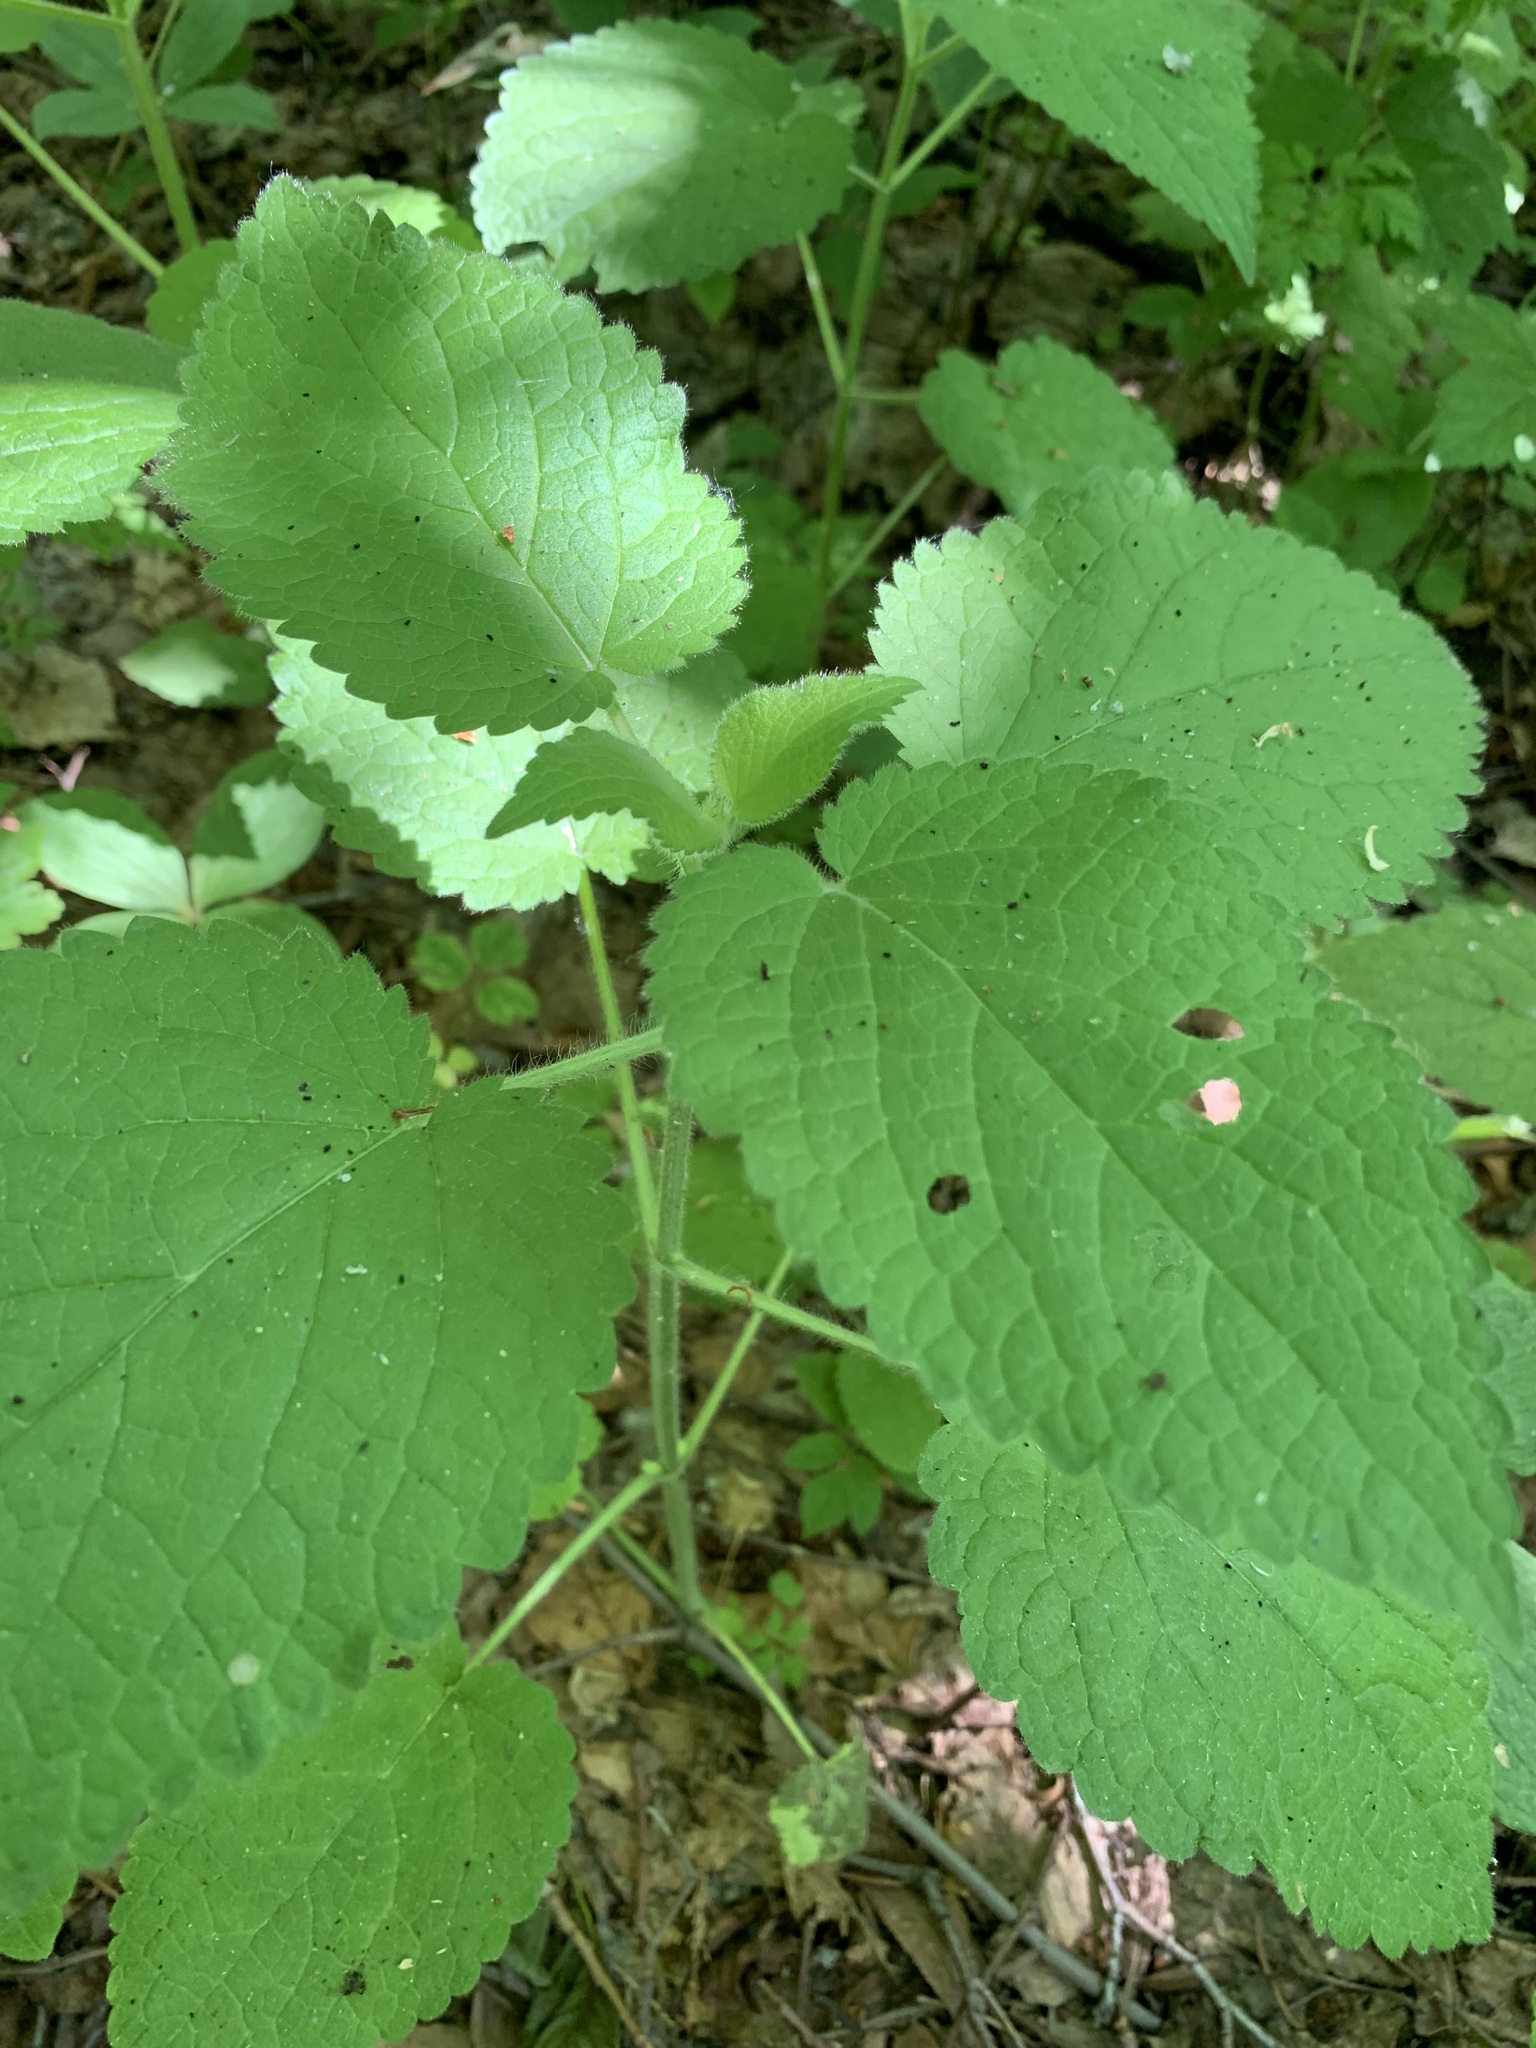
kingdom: Plantae
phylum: Tracheophyta
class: Magnoliopsida
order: Lamiales
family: Lamiaceae
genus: Stachys
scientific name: Stachys sylvatica
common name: Hedge woundwort
